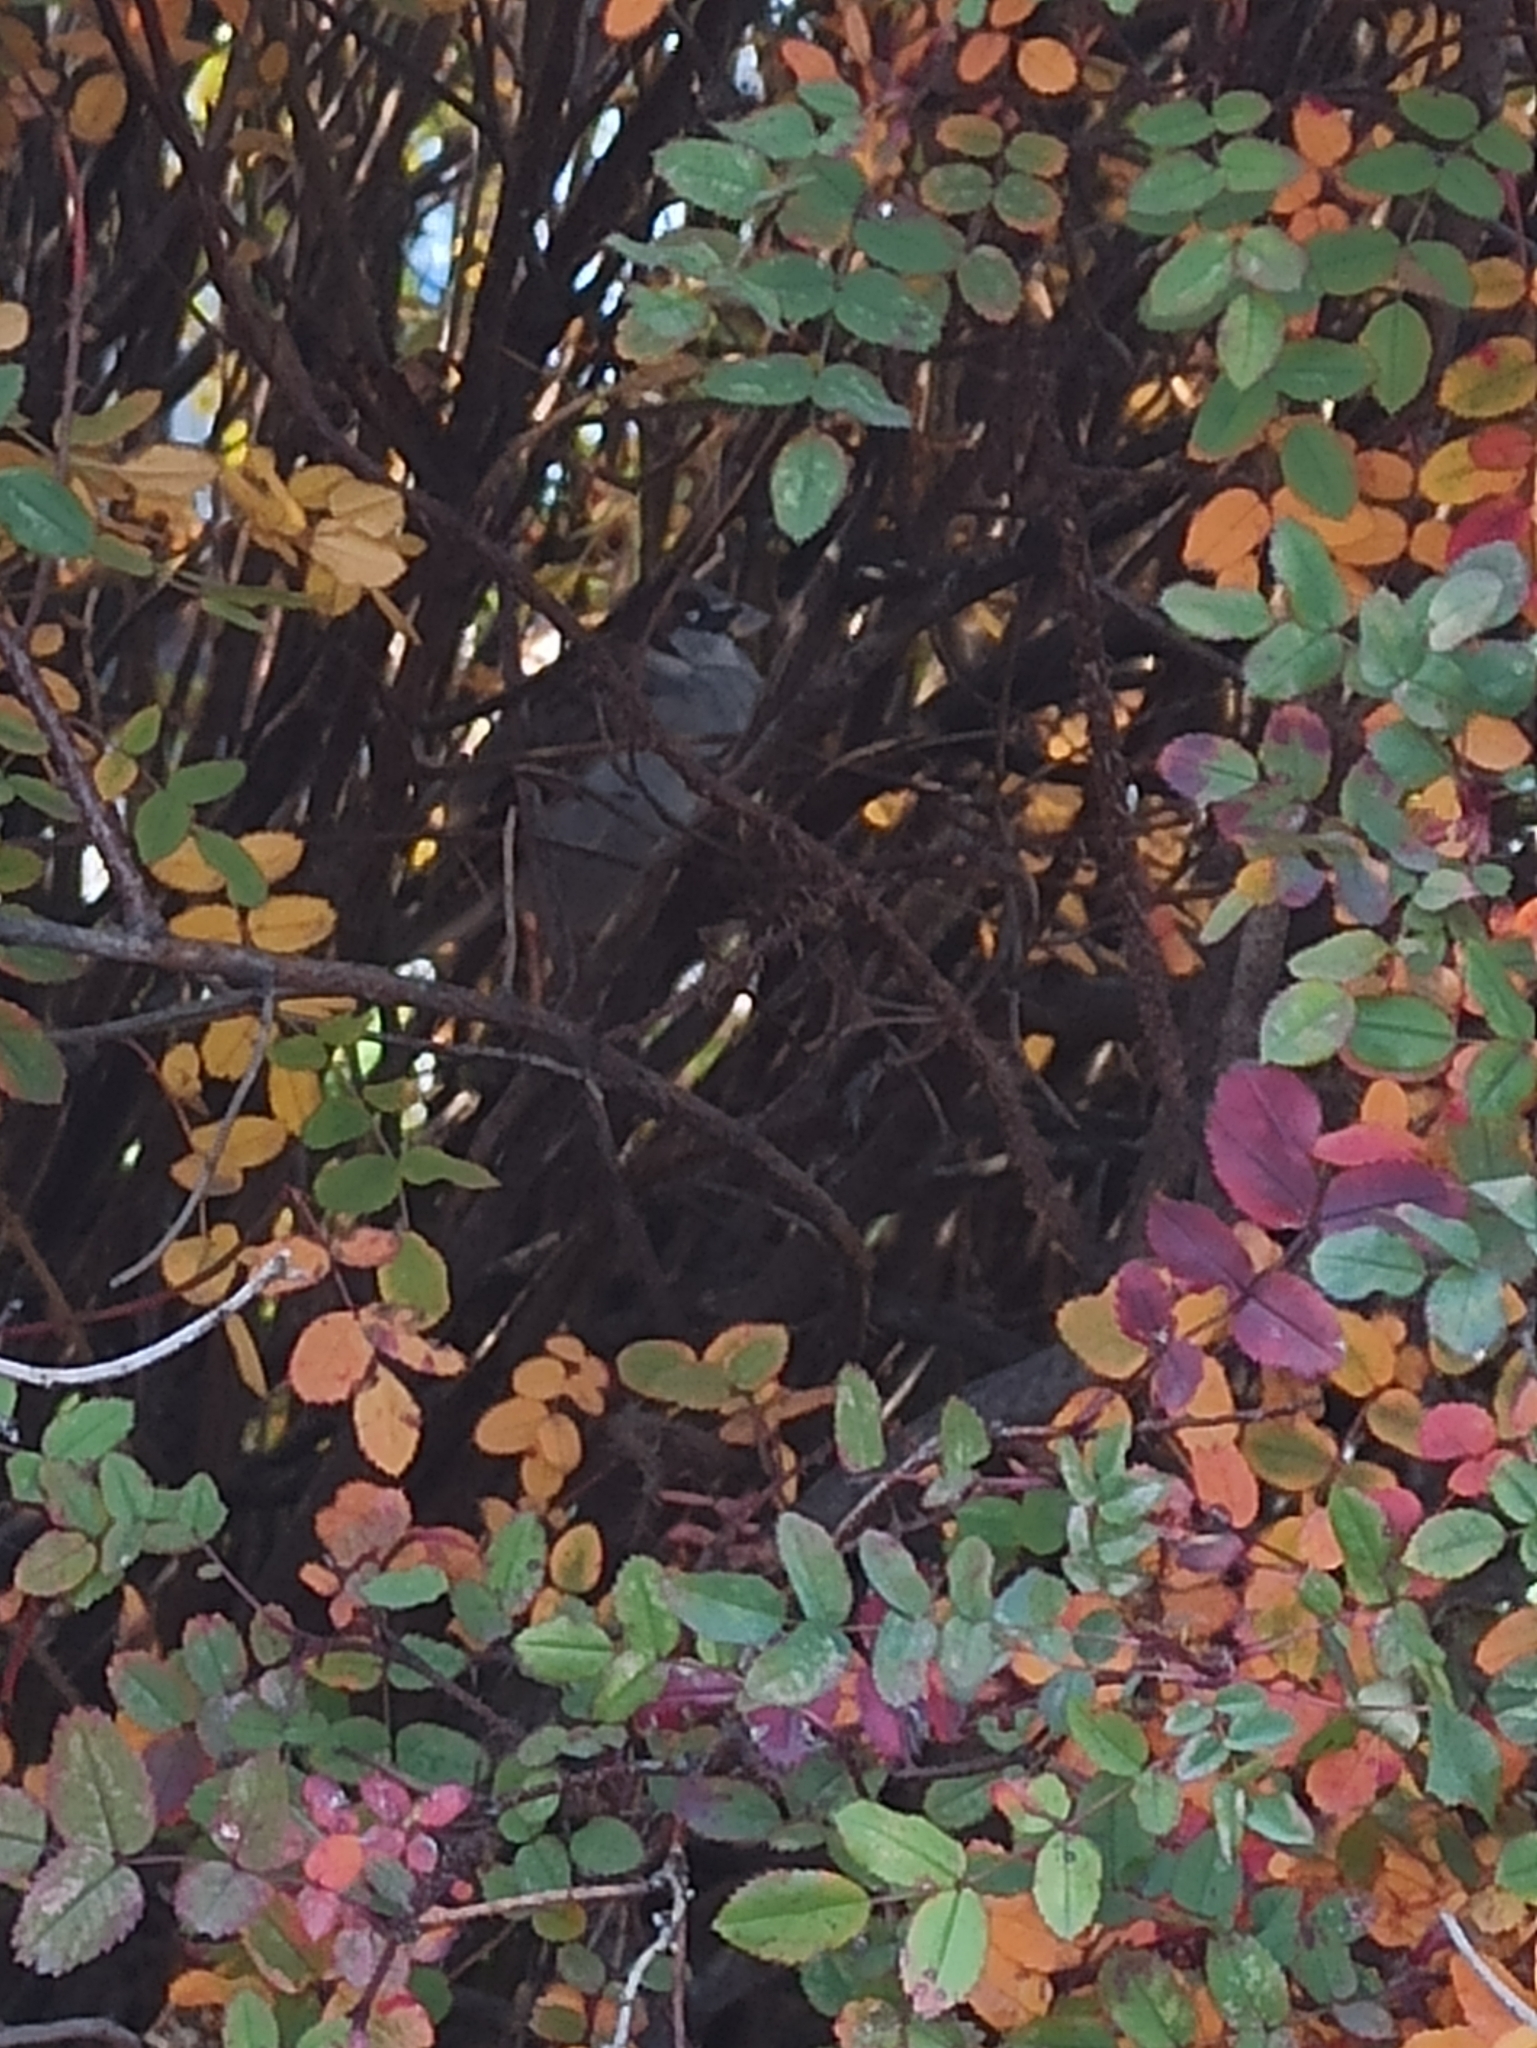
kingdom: Animalia
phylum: Chordata
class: Aves
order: Passeriformes
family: Passeridae
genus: Passer
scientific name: Passer domesticus
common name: House sparrow
